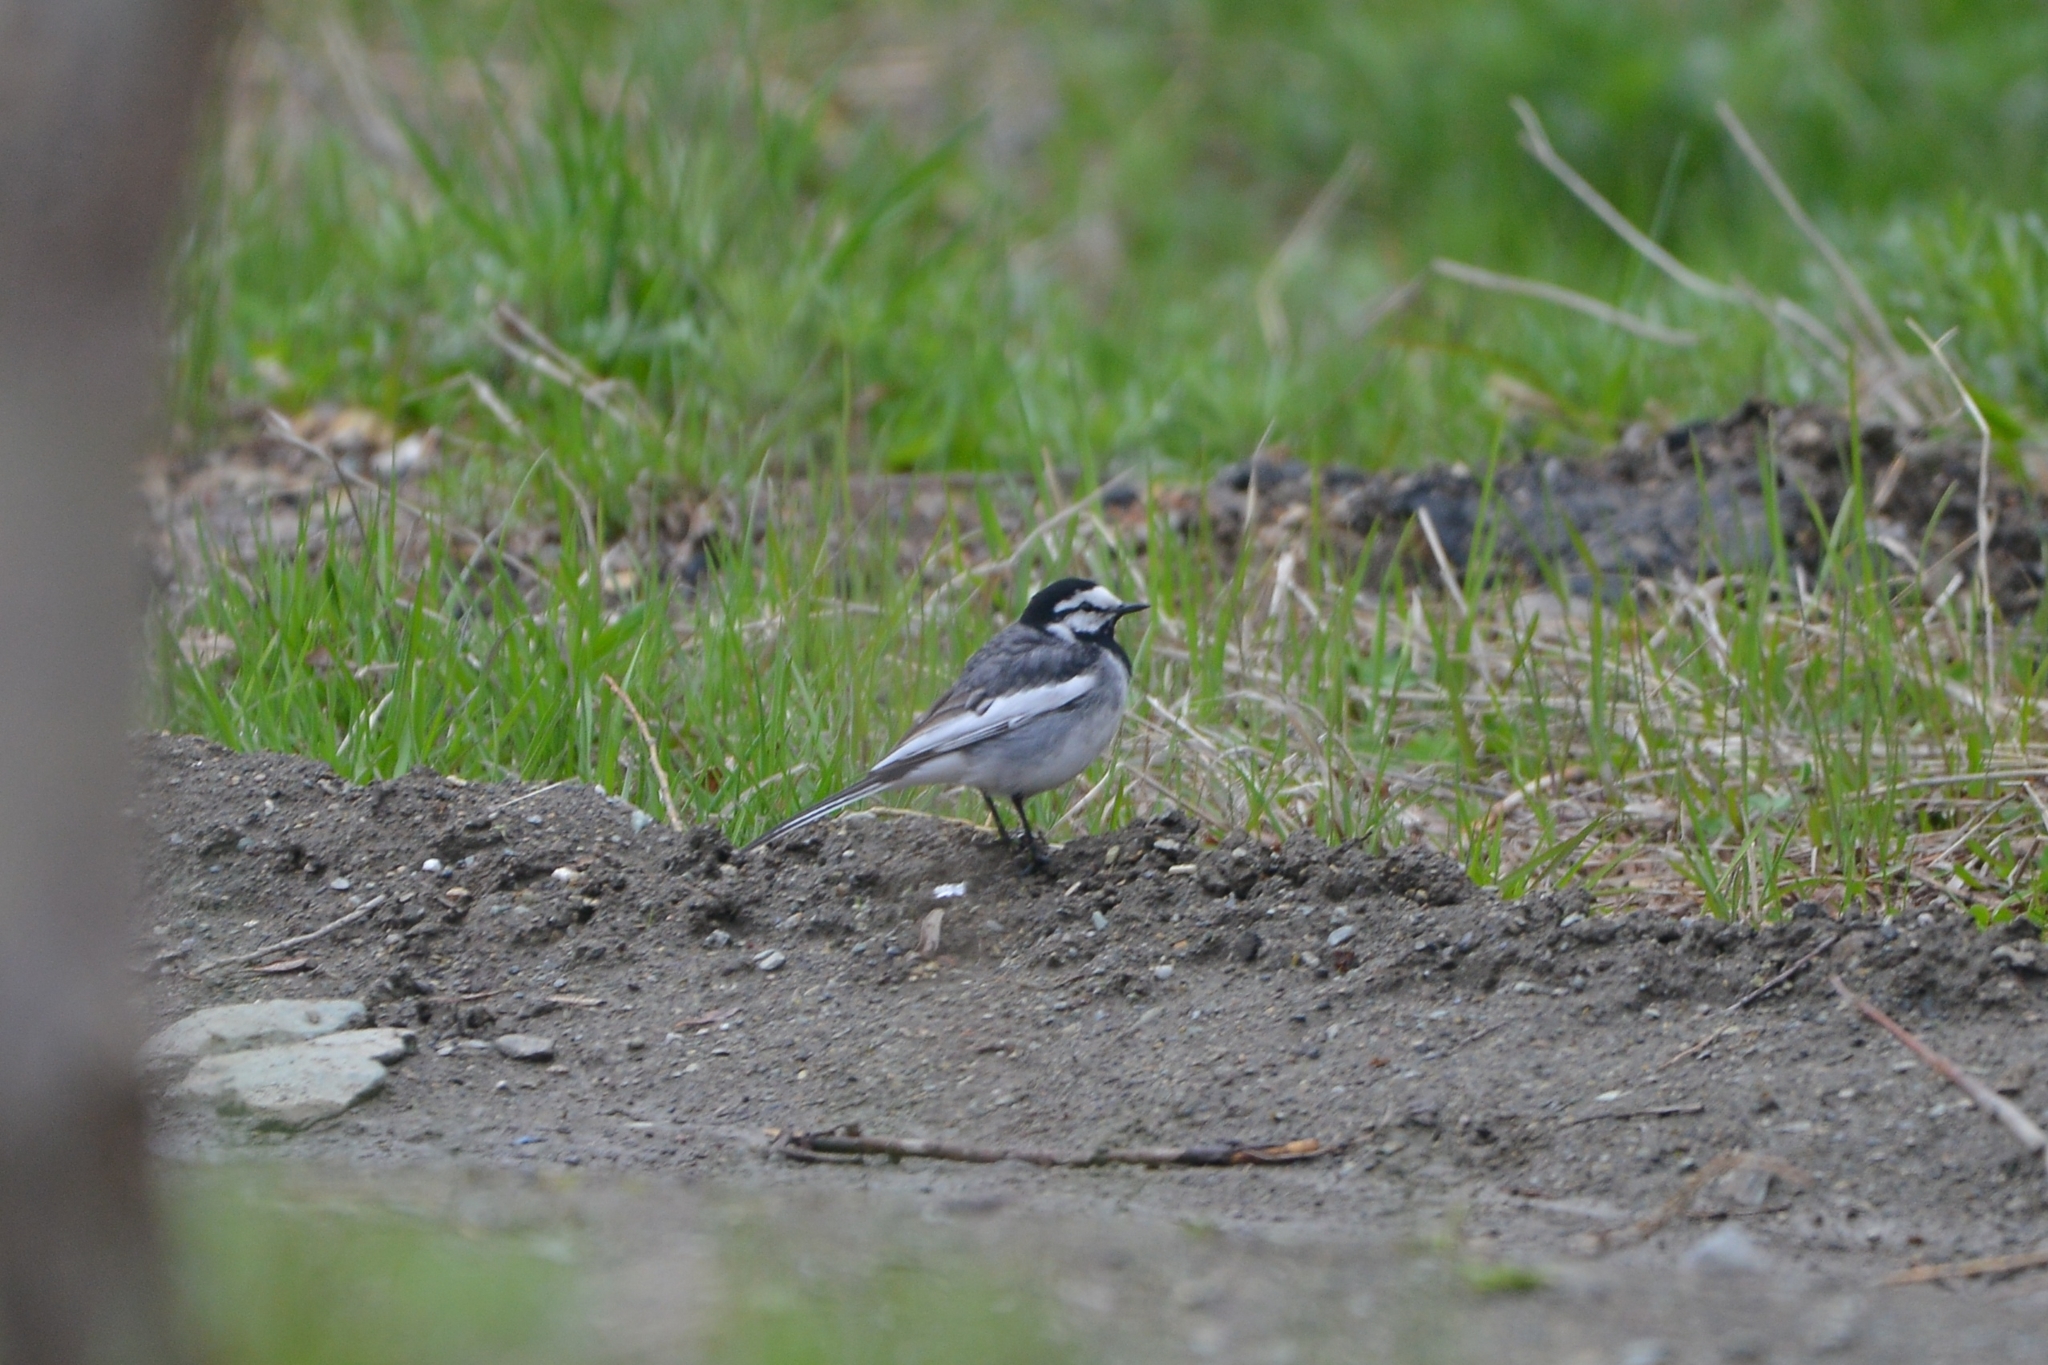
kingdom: Animalia
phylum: Chordata
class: Aves
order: Passeriformes
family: Motacillidae
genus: Motacilla
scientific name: Motacilla alba
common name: White wagtail
